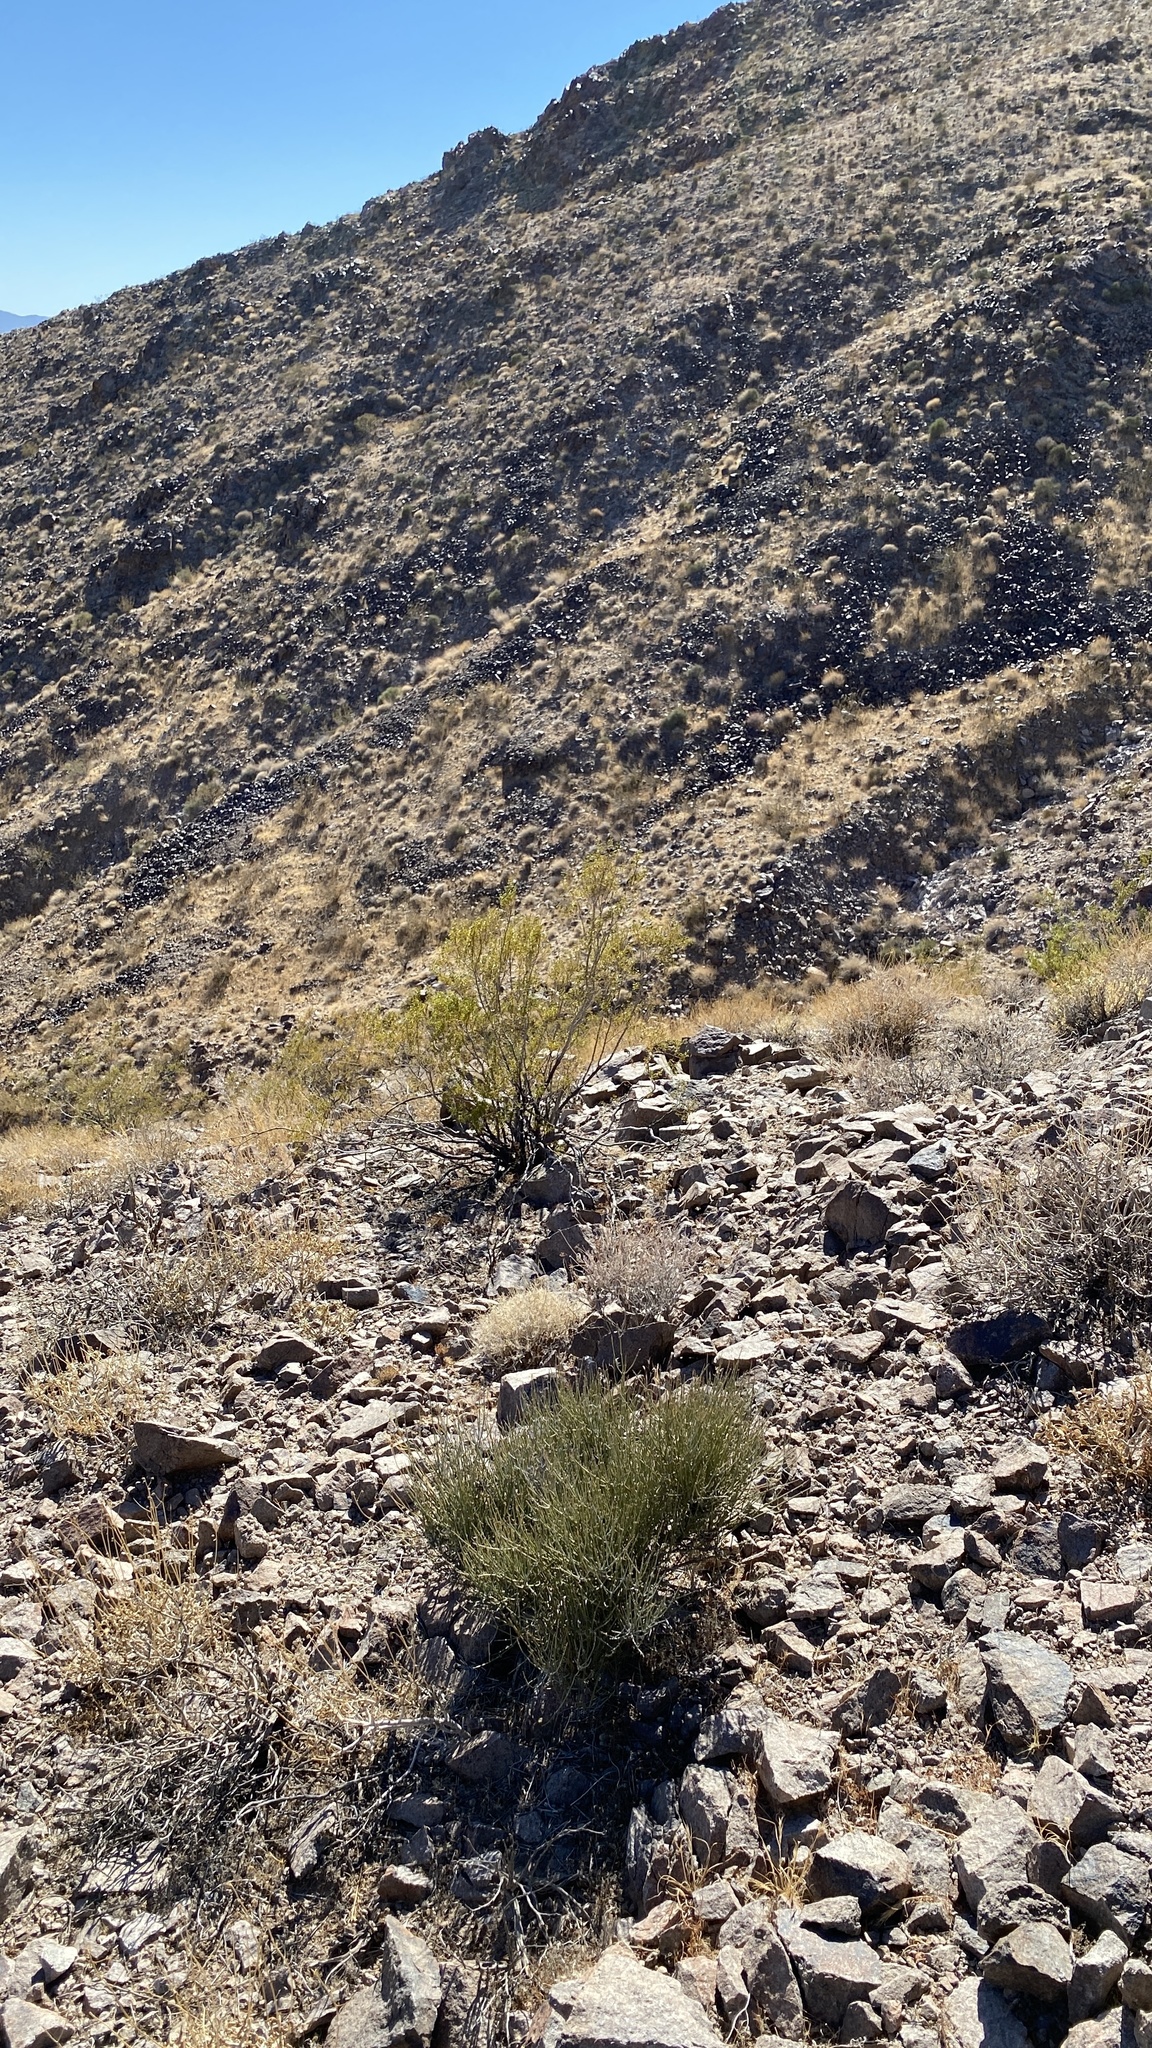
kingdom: Plantae
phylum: Tracheophyta
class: Magnoliopsida
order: Zygophyllales
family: Zygophyllaceae
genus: Larrea
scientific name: Larrea tridentata
